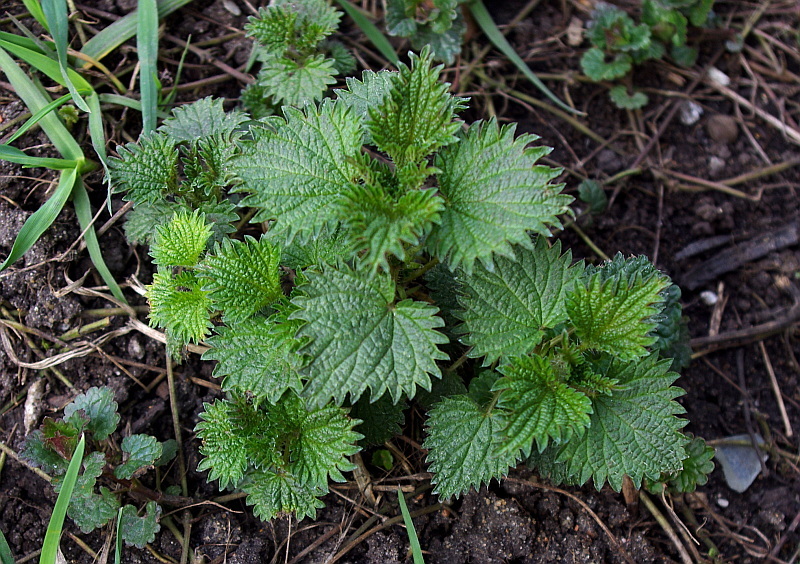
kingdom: Plantae
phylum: Tracheophyta
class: Magnoliopsida
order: Rosales
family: Urticaceae
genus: Urtica
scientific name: Urtica dioica
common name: Common nettle
